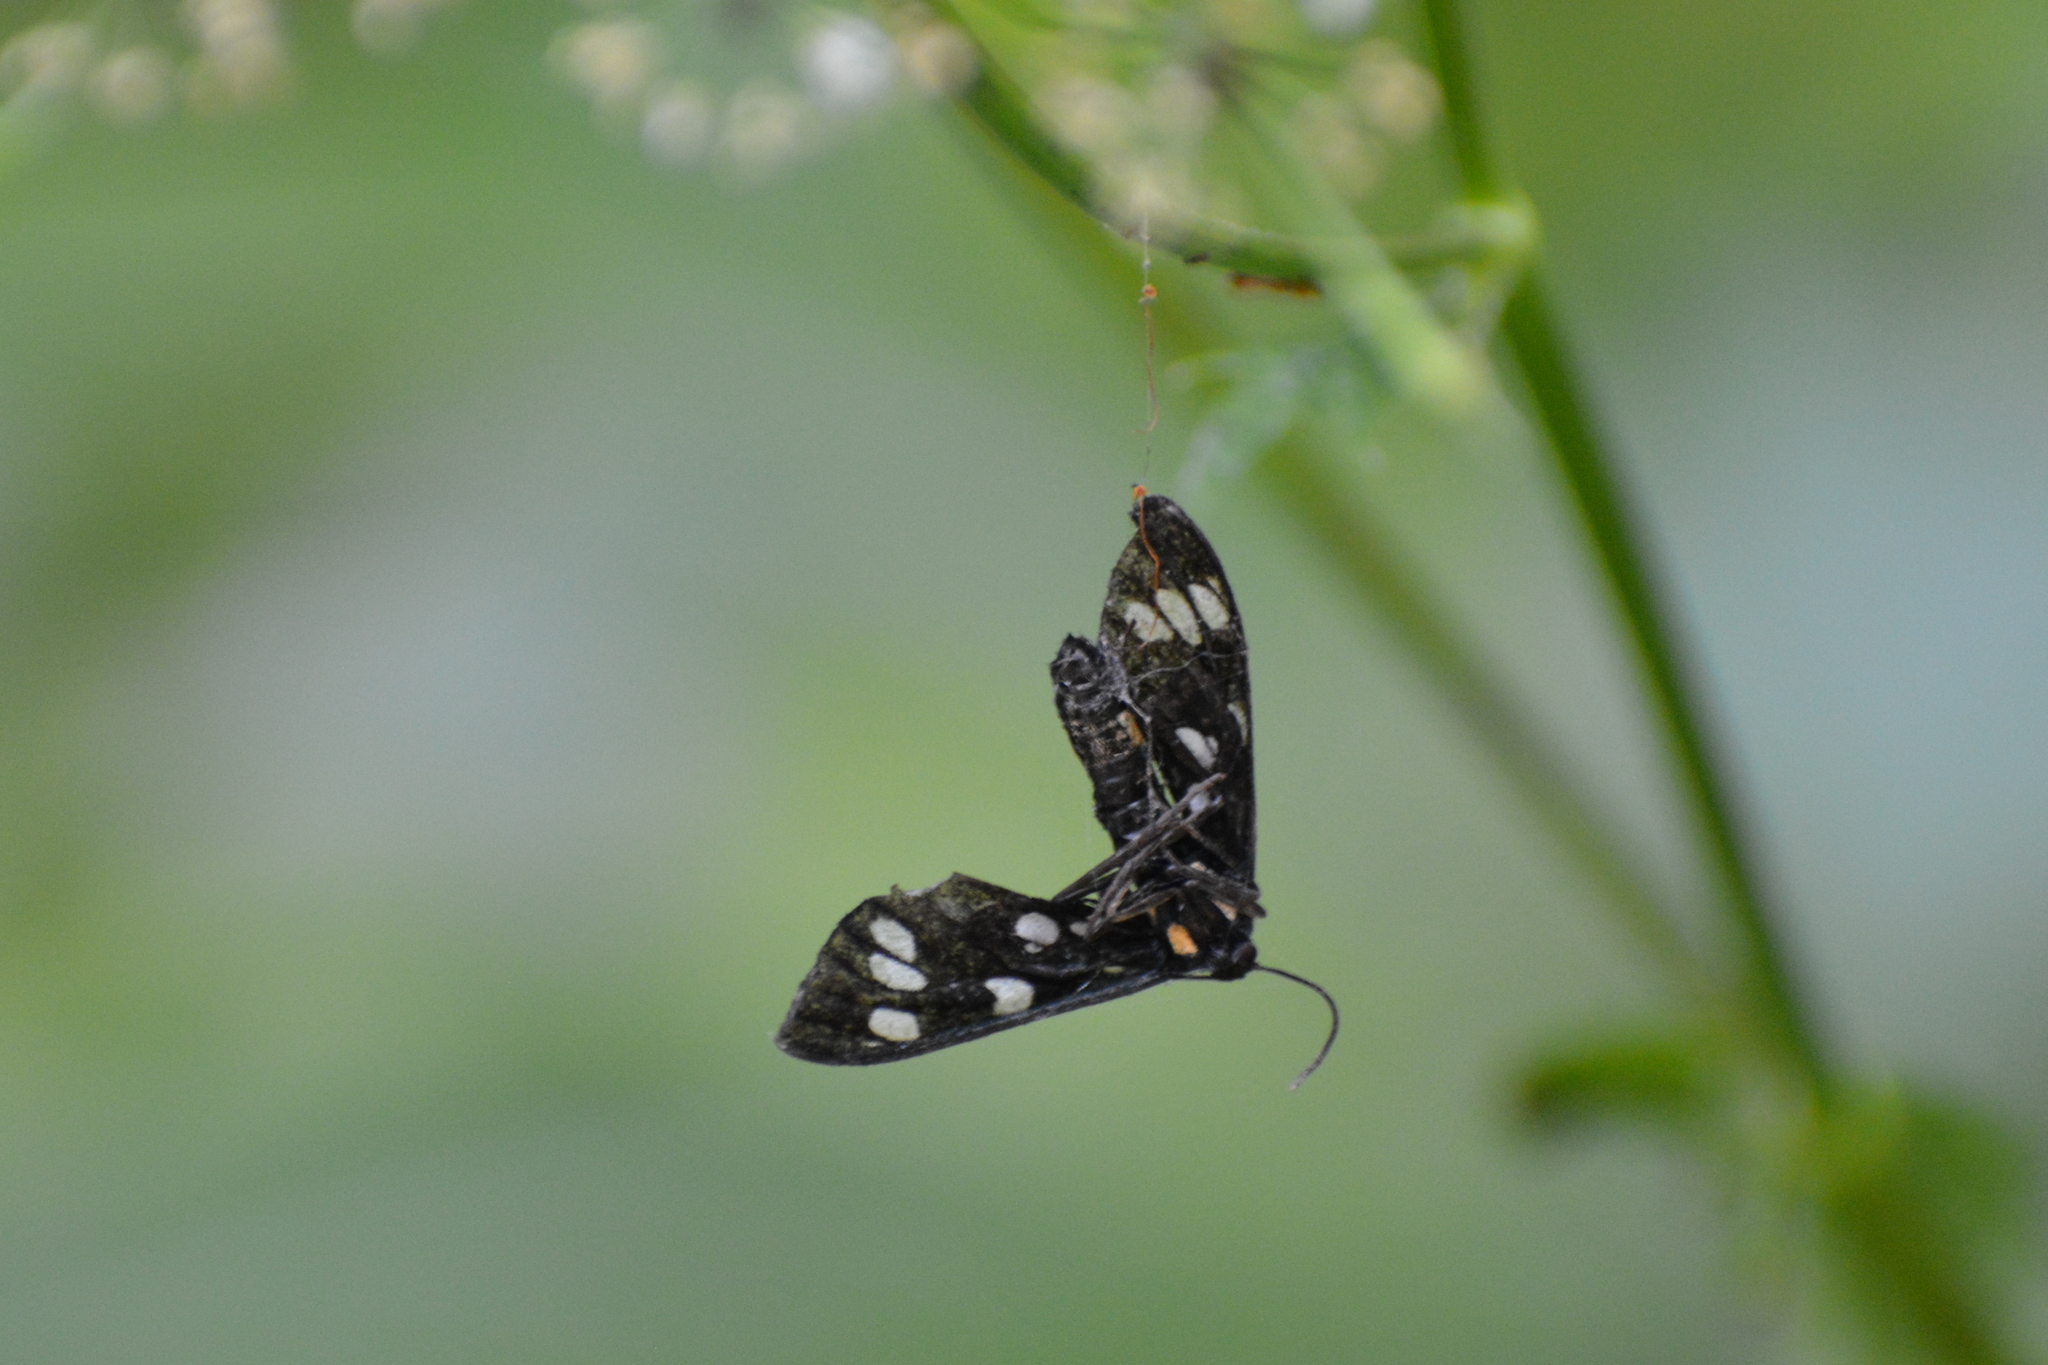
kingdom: Animalia
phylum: Arthropoda
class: Insecta
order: Lepidoptera
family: Erebidae
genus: Amata
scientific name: Amata phegea
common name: Nine-spotted
